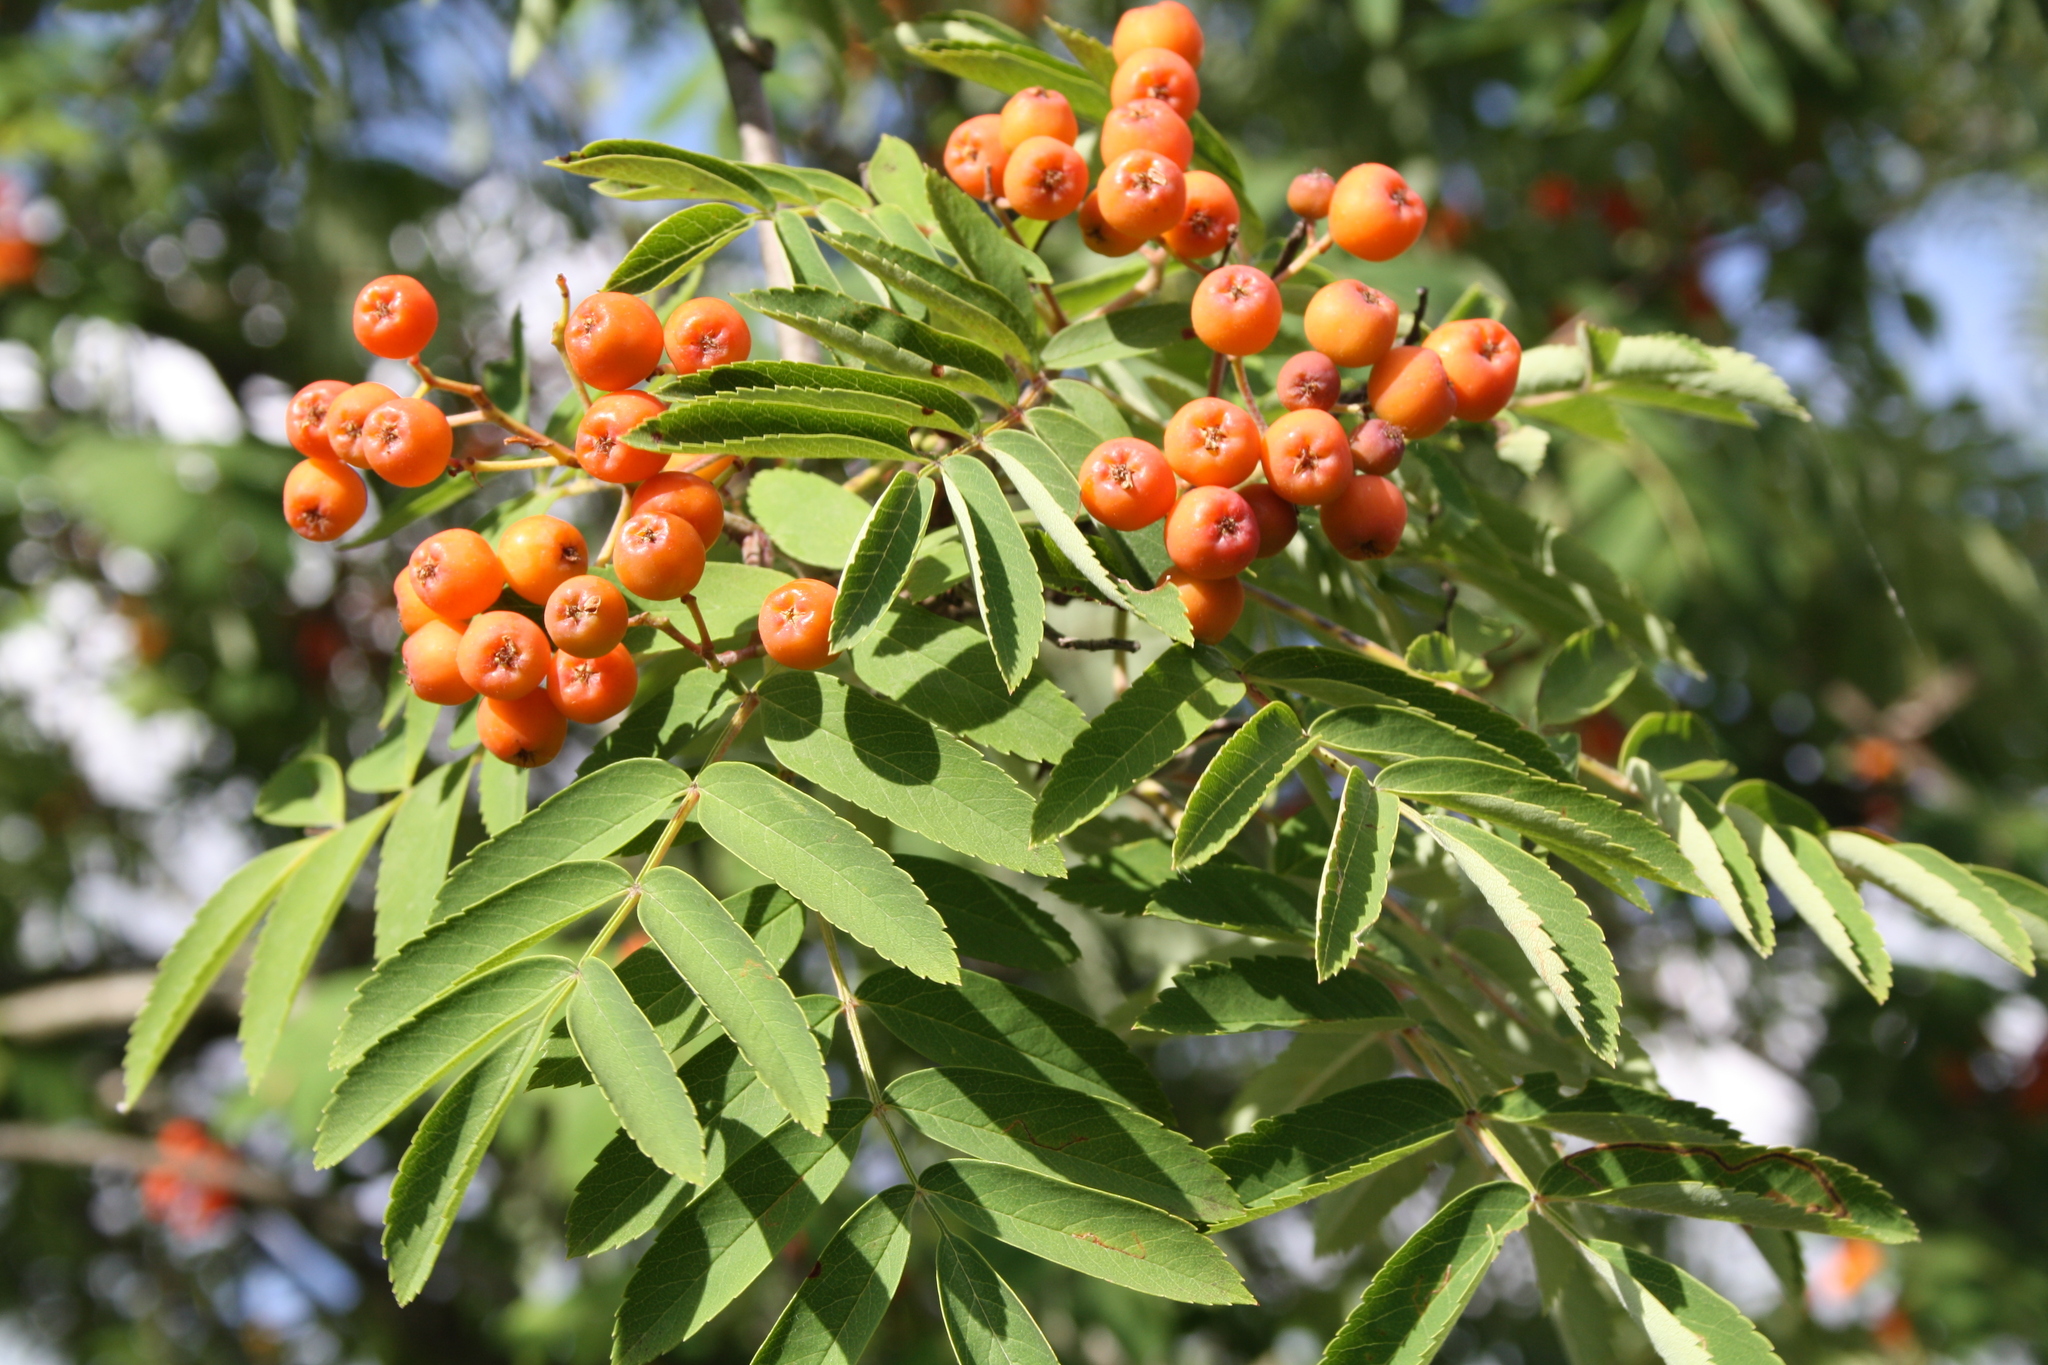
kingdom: Plantae
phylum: Tracheophyta
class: Magnoliopsida
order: Rosales
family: Rosaceae
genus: Sorbus
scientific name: Sorbus aucuparia
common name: Rowan
